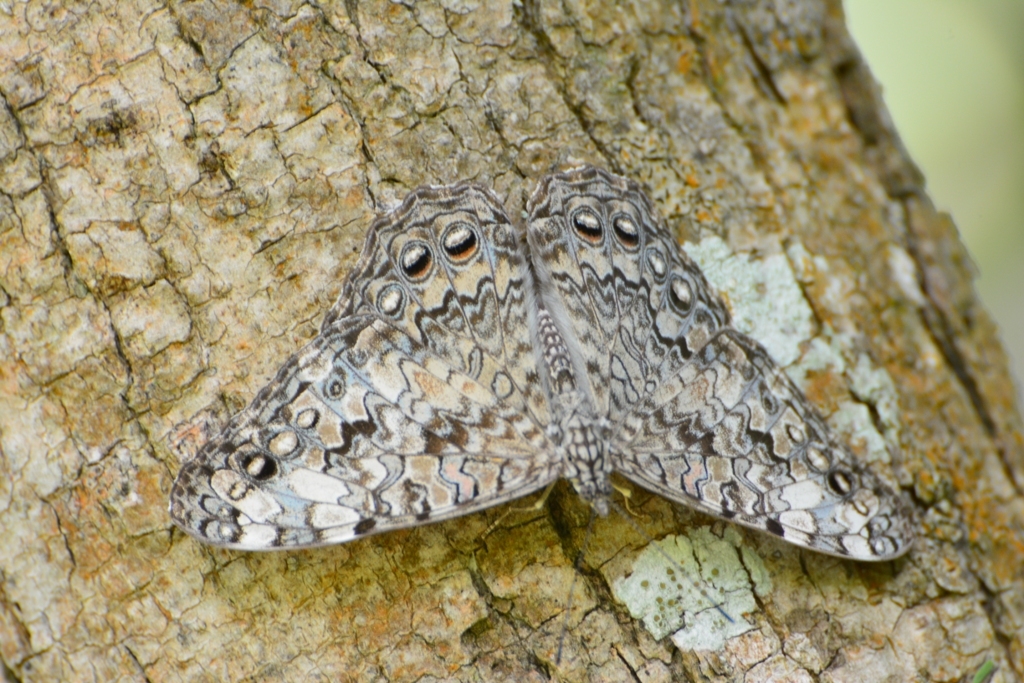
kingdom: Animalia
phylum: Arthropoda
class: Insecta
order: Lepidoptera
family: Nymphalidae
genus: Hamadryas
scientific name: Hamadryas februa
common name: Gray cracker
